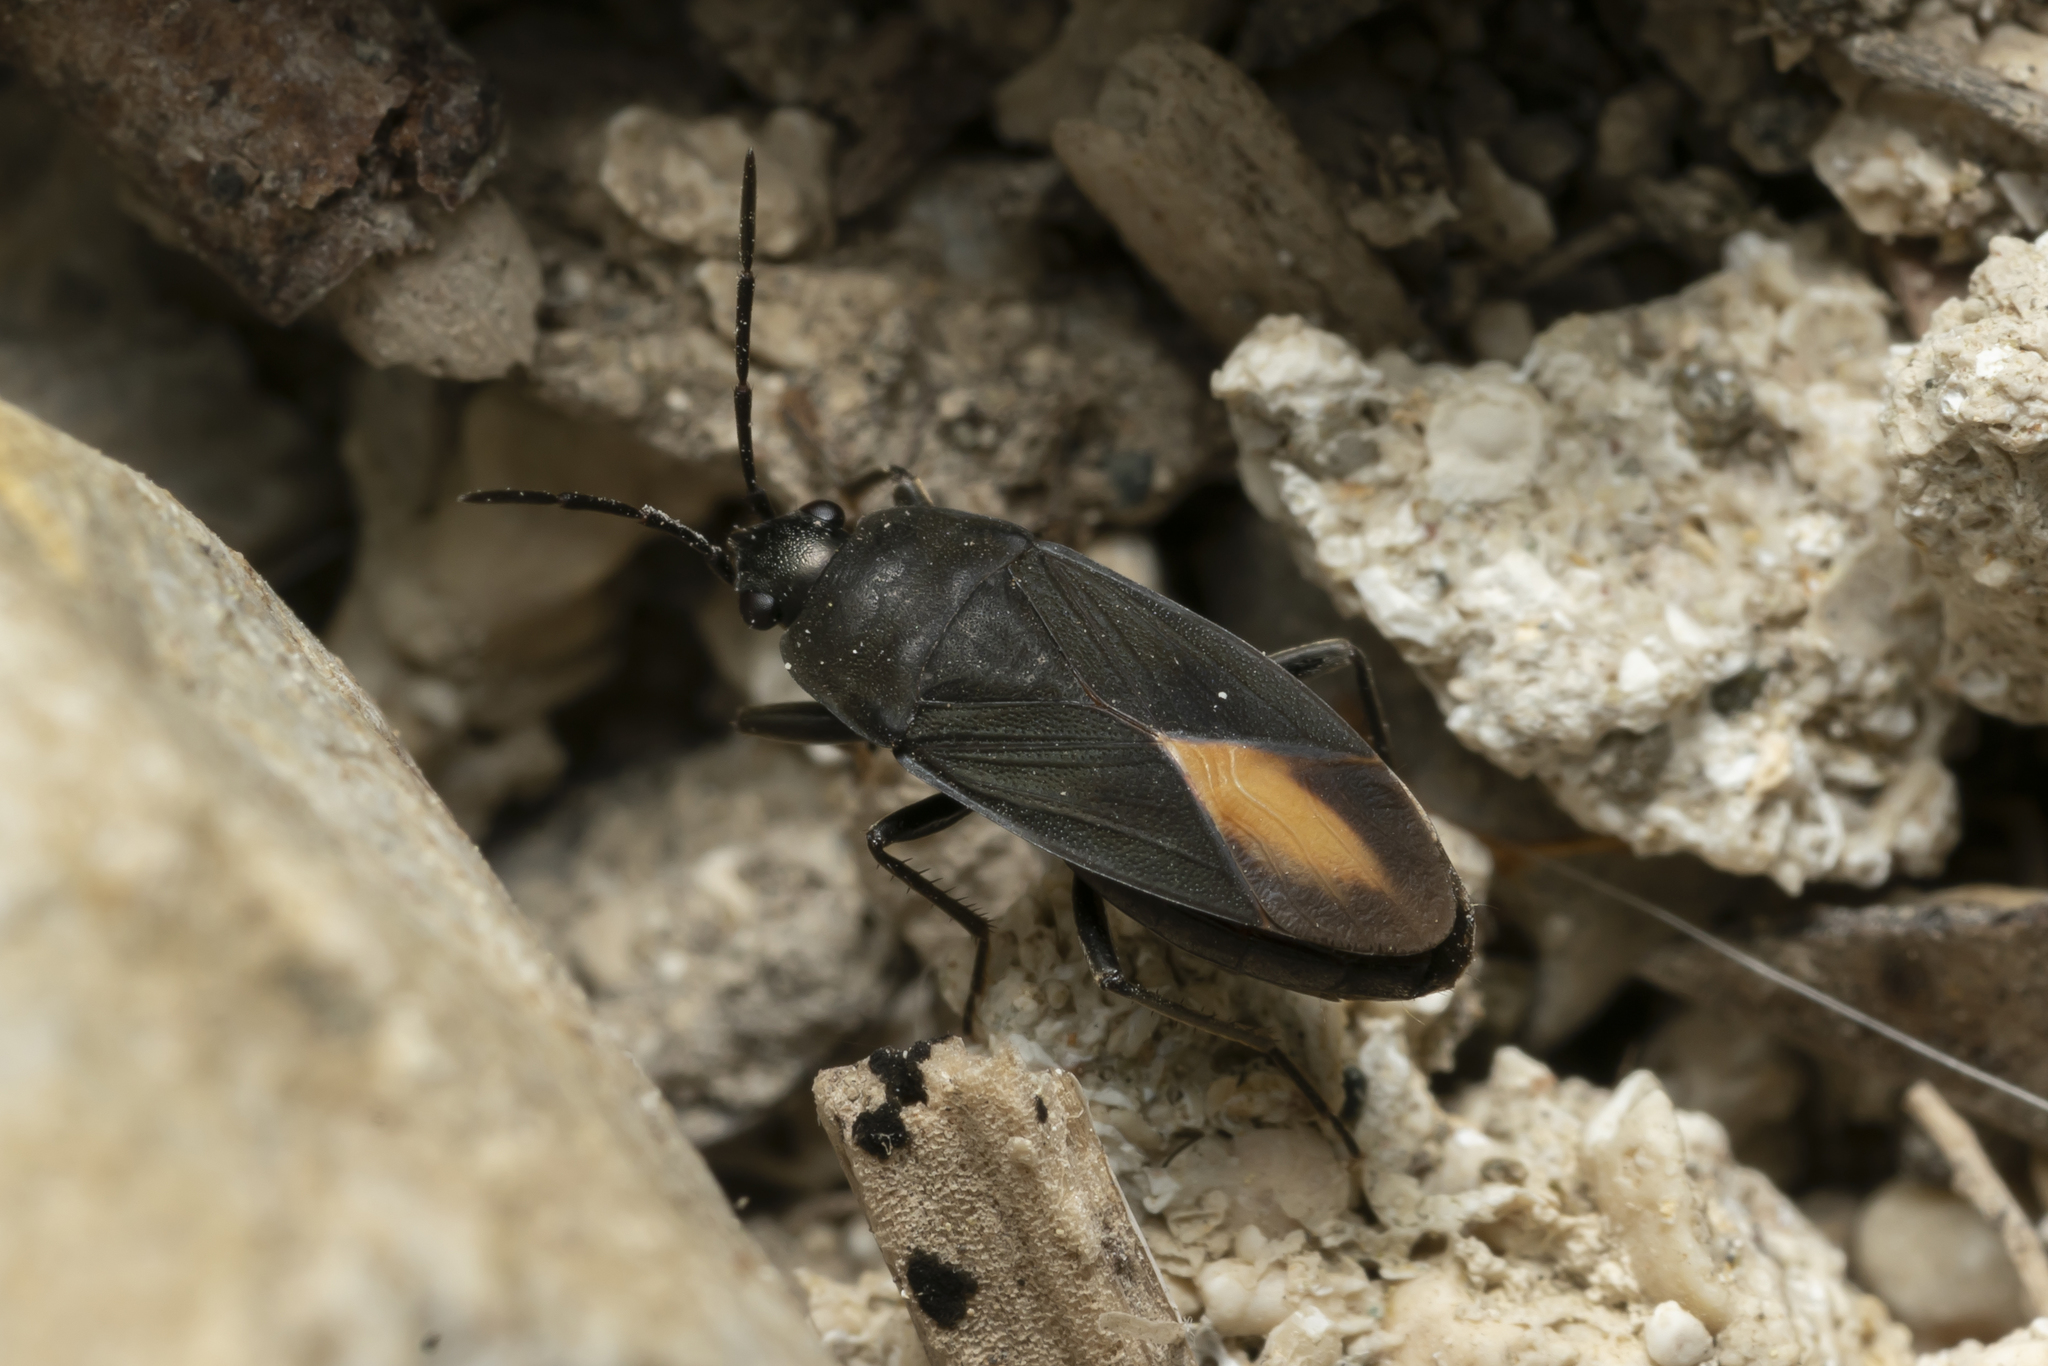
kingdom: Animalia
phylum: Arthropoda
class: Insecta
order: Hemiptera
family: Rhyparochromidae
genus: Aphanus
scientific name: Aphanus rolandri
